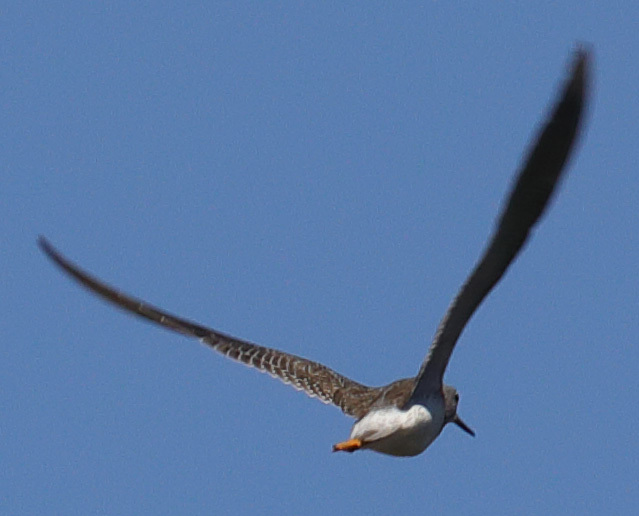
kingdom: Animalia
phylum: Chordata
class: Aves
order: Charadriiformes
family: Scolopacidae
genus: Tringa
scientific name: Tringa melanoleuca
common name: Greater yellowlegs
